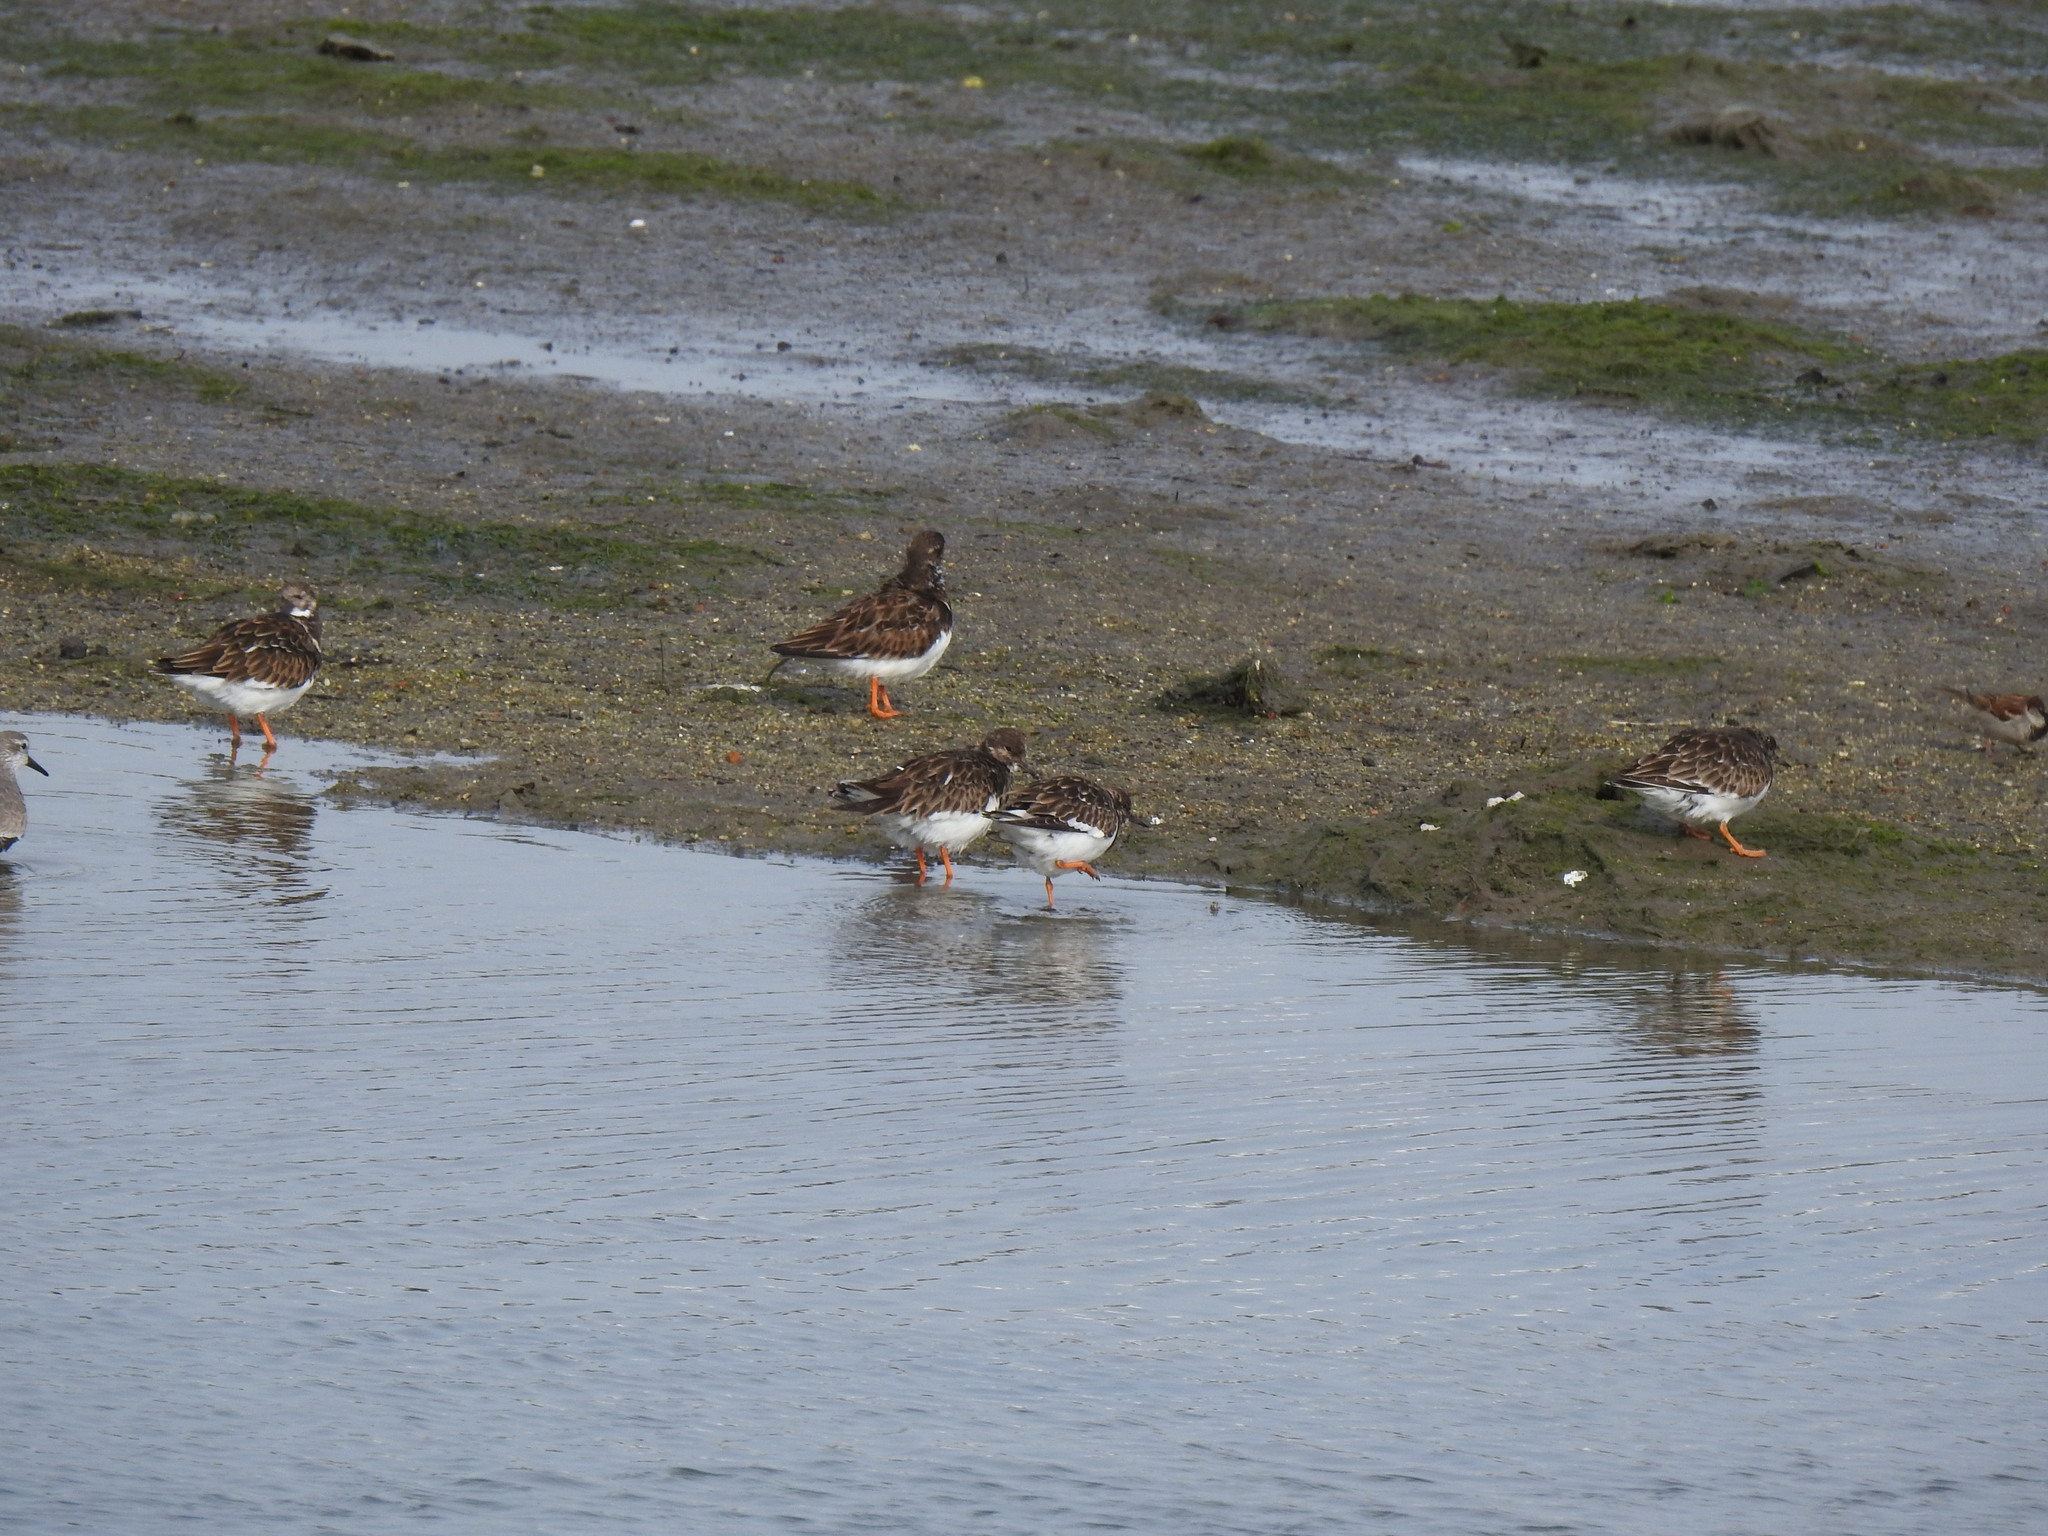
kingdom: Animalia
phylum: Chordata
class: Aves
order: Charadriiformes
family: Scolopacidae
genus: Arenaria
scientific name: Arenaria interpres
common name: Ruddy turnstone
